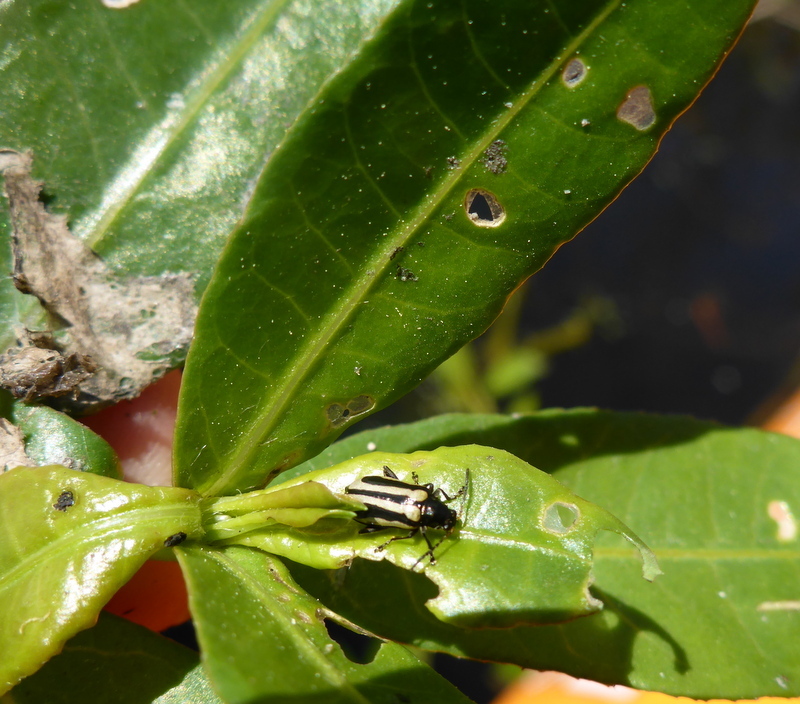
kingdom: Animalia
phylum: Arthropoda
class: Insecta
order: Coleoptera
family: Chrysomelidae
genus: Agasicles
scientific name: Agasicles hygrophila
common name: Alligatorweed flea beetle
